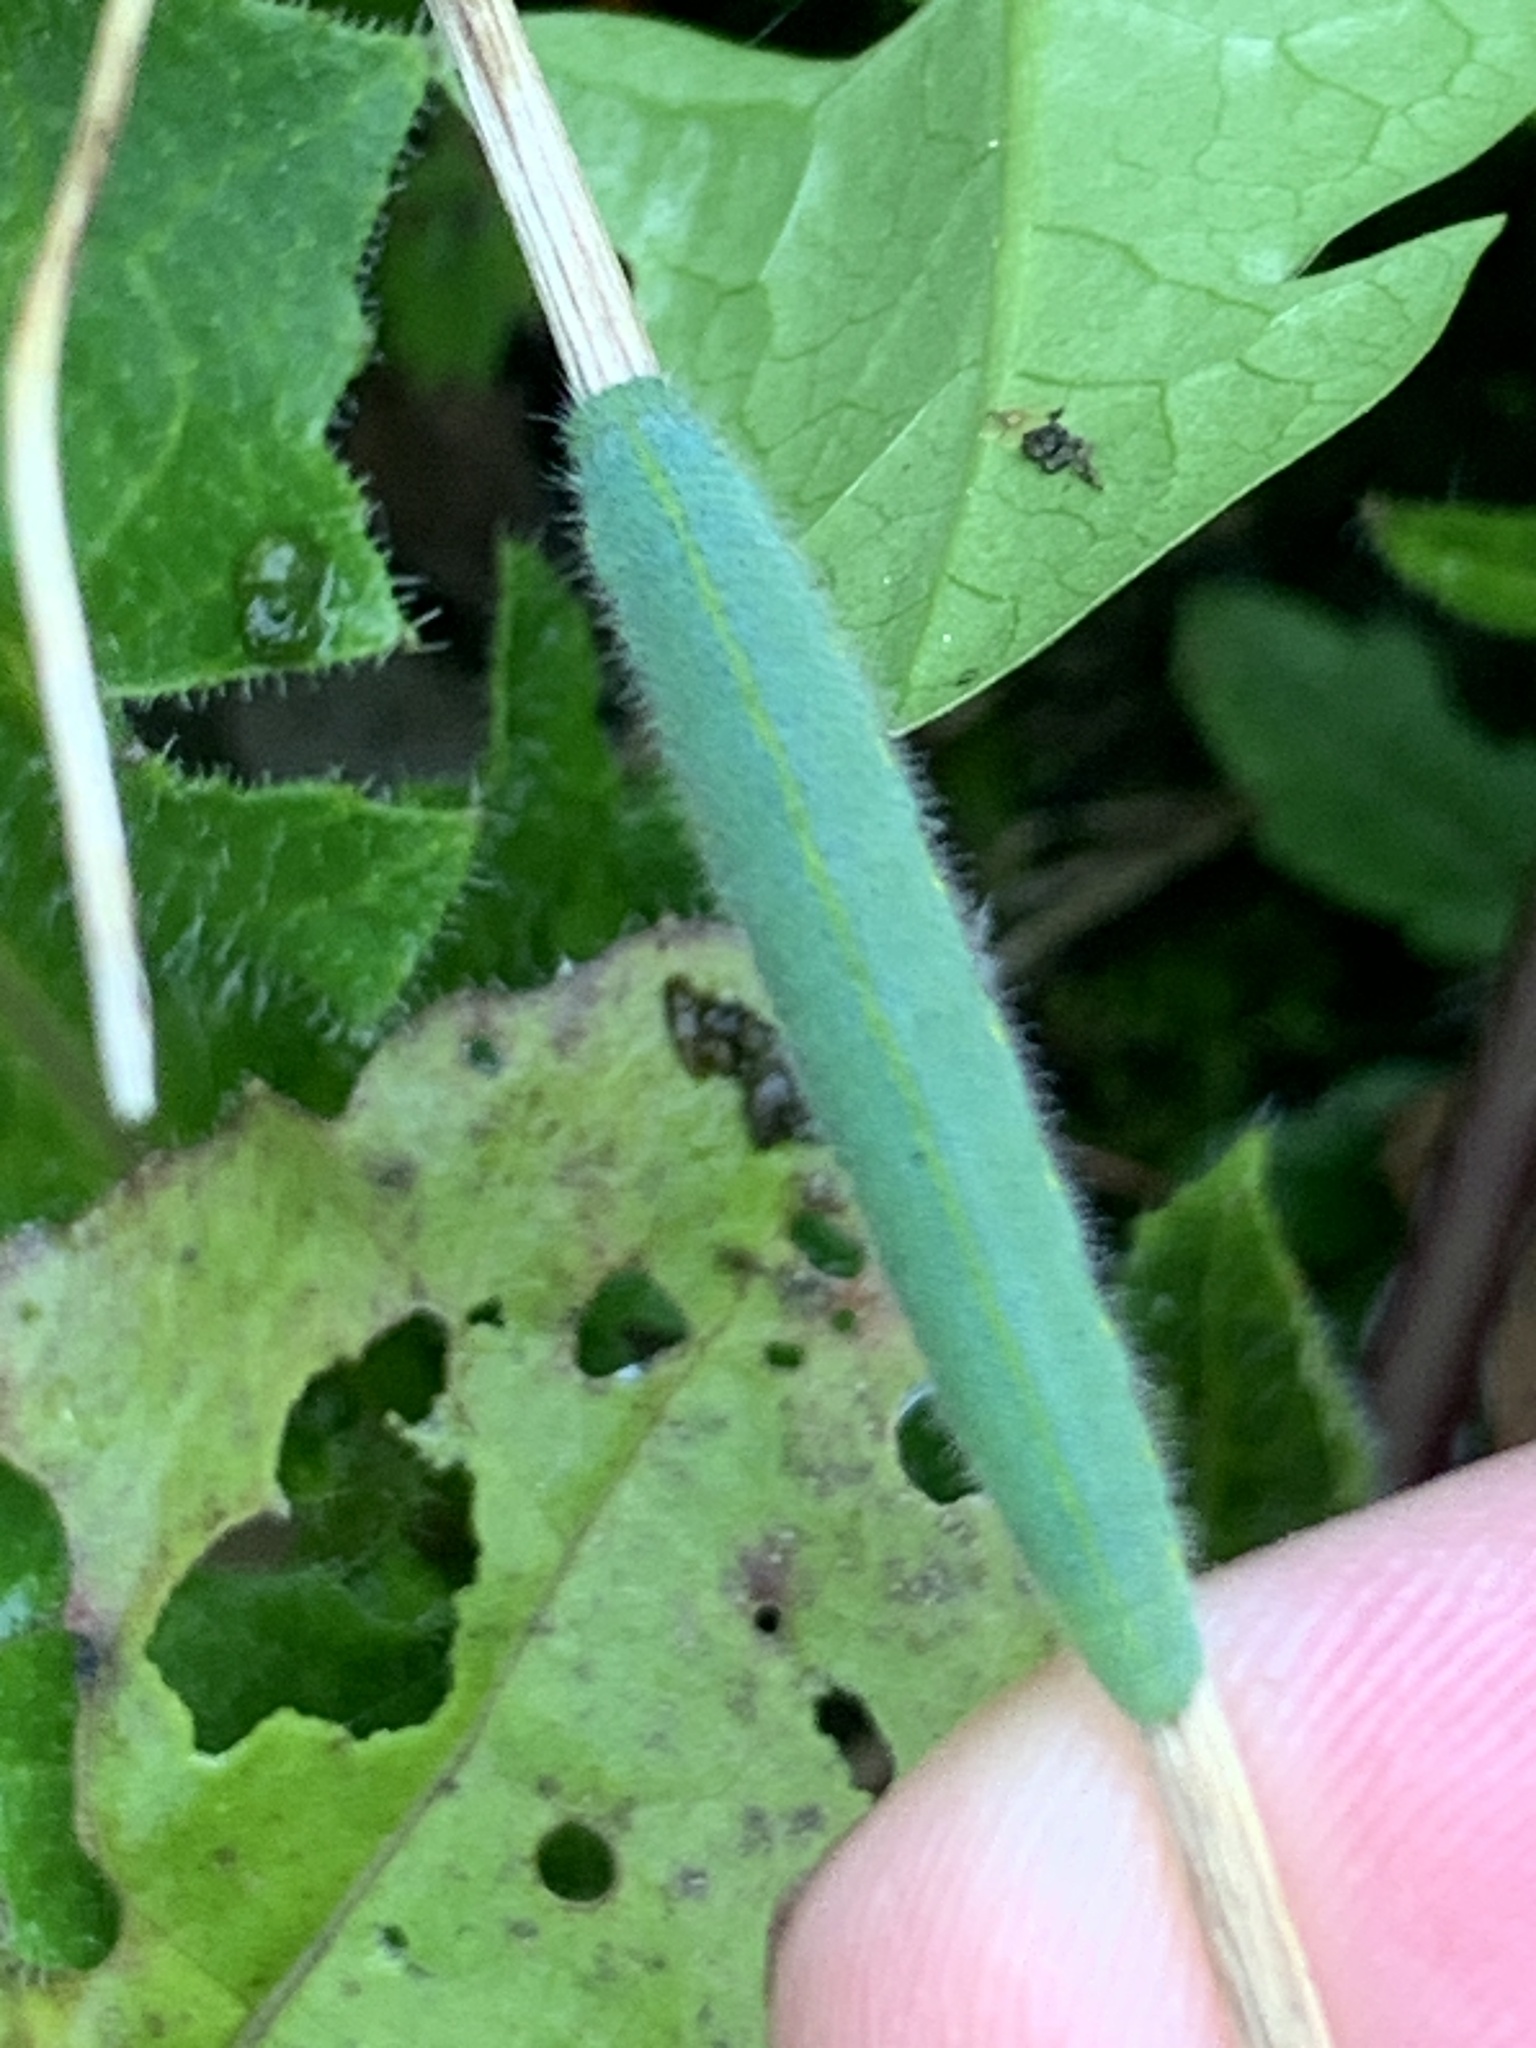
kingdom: Animalia
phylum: Arthropoda
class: Insecta
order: Lepidoptera
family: Pieridae
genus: Pieris
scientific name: Pieris rapae
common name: Small white
